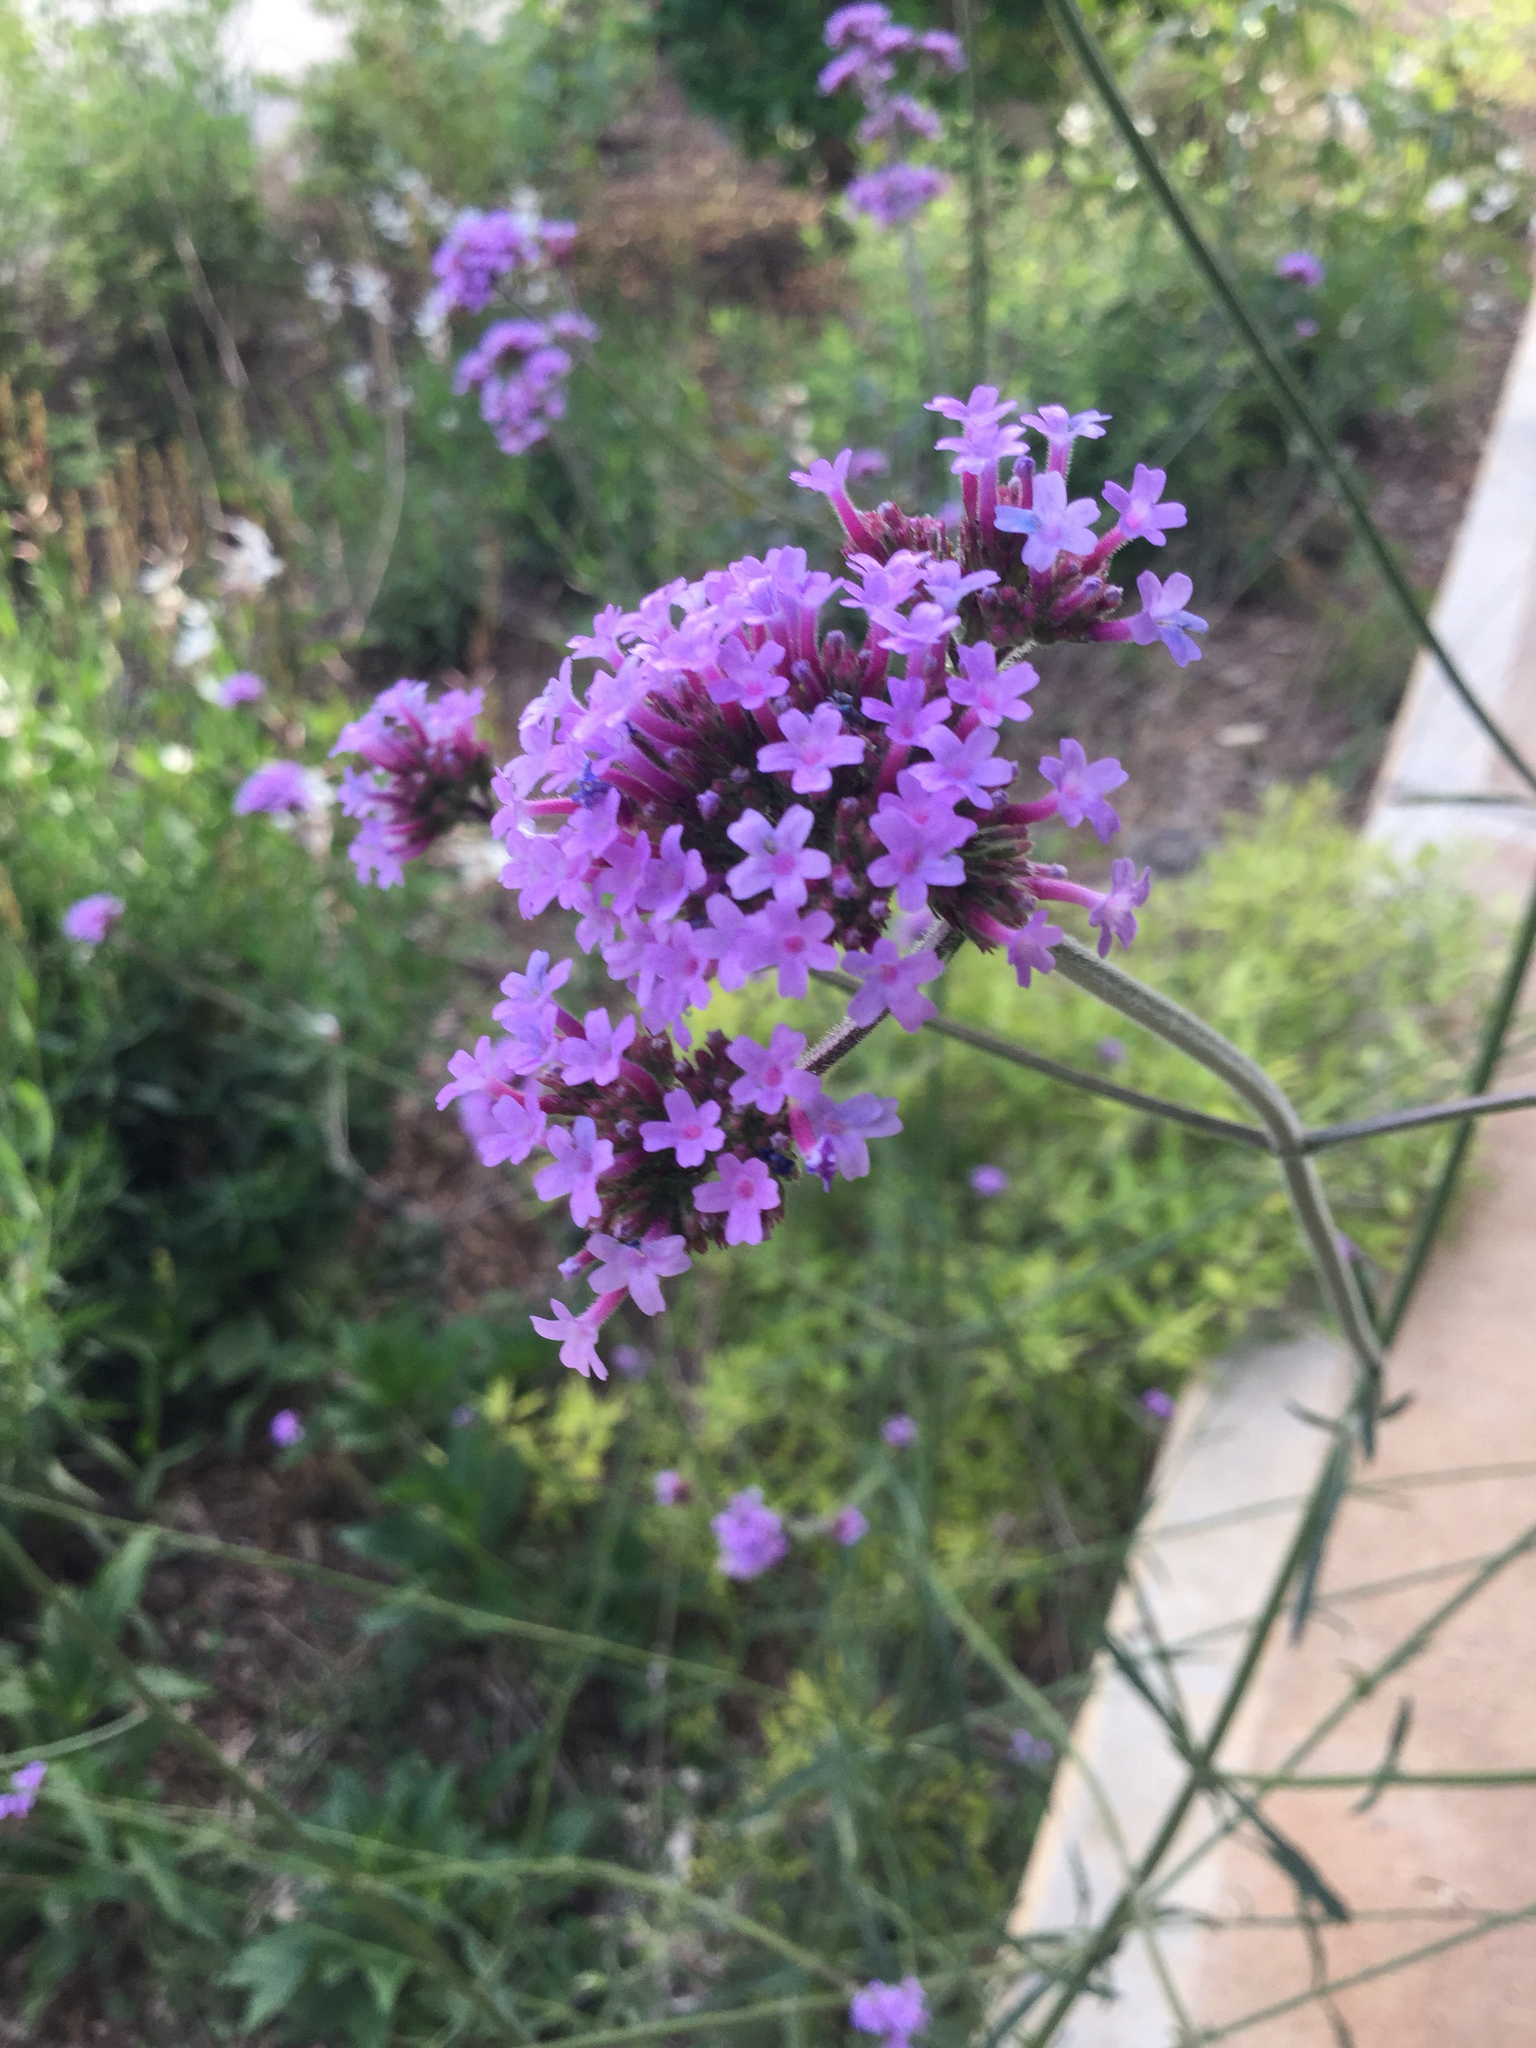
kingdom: Plantae
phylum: Tracheophyta
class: Magnoliopsida
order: Lamiales
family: Verbenaceae
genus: Verbena
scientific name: Verbena bonariensis
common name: Purpletop vervain
